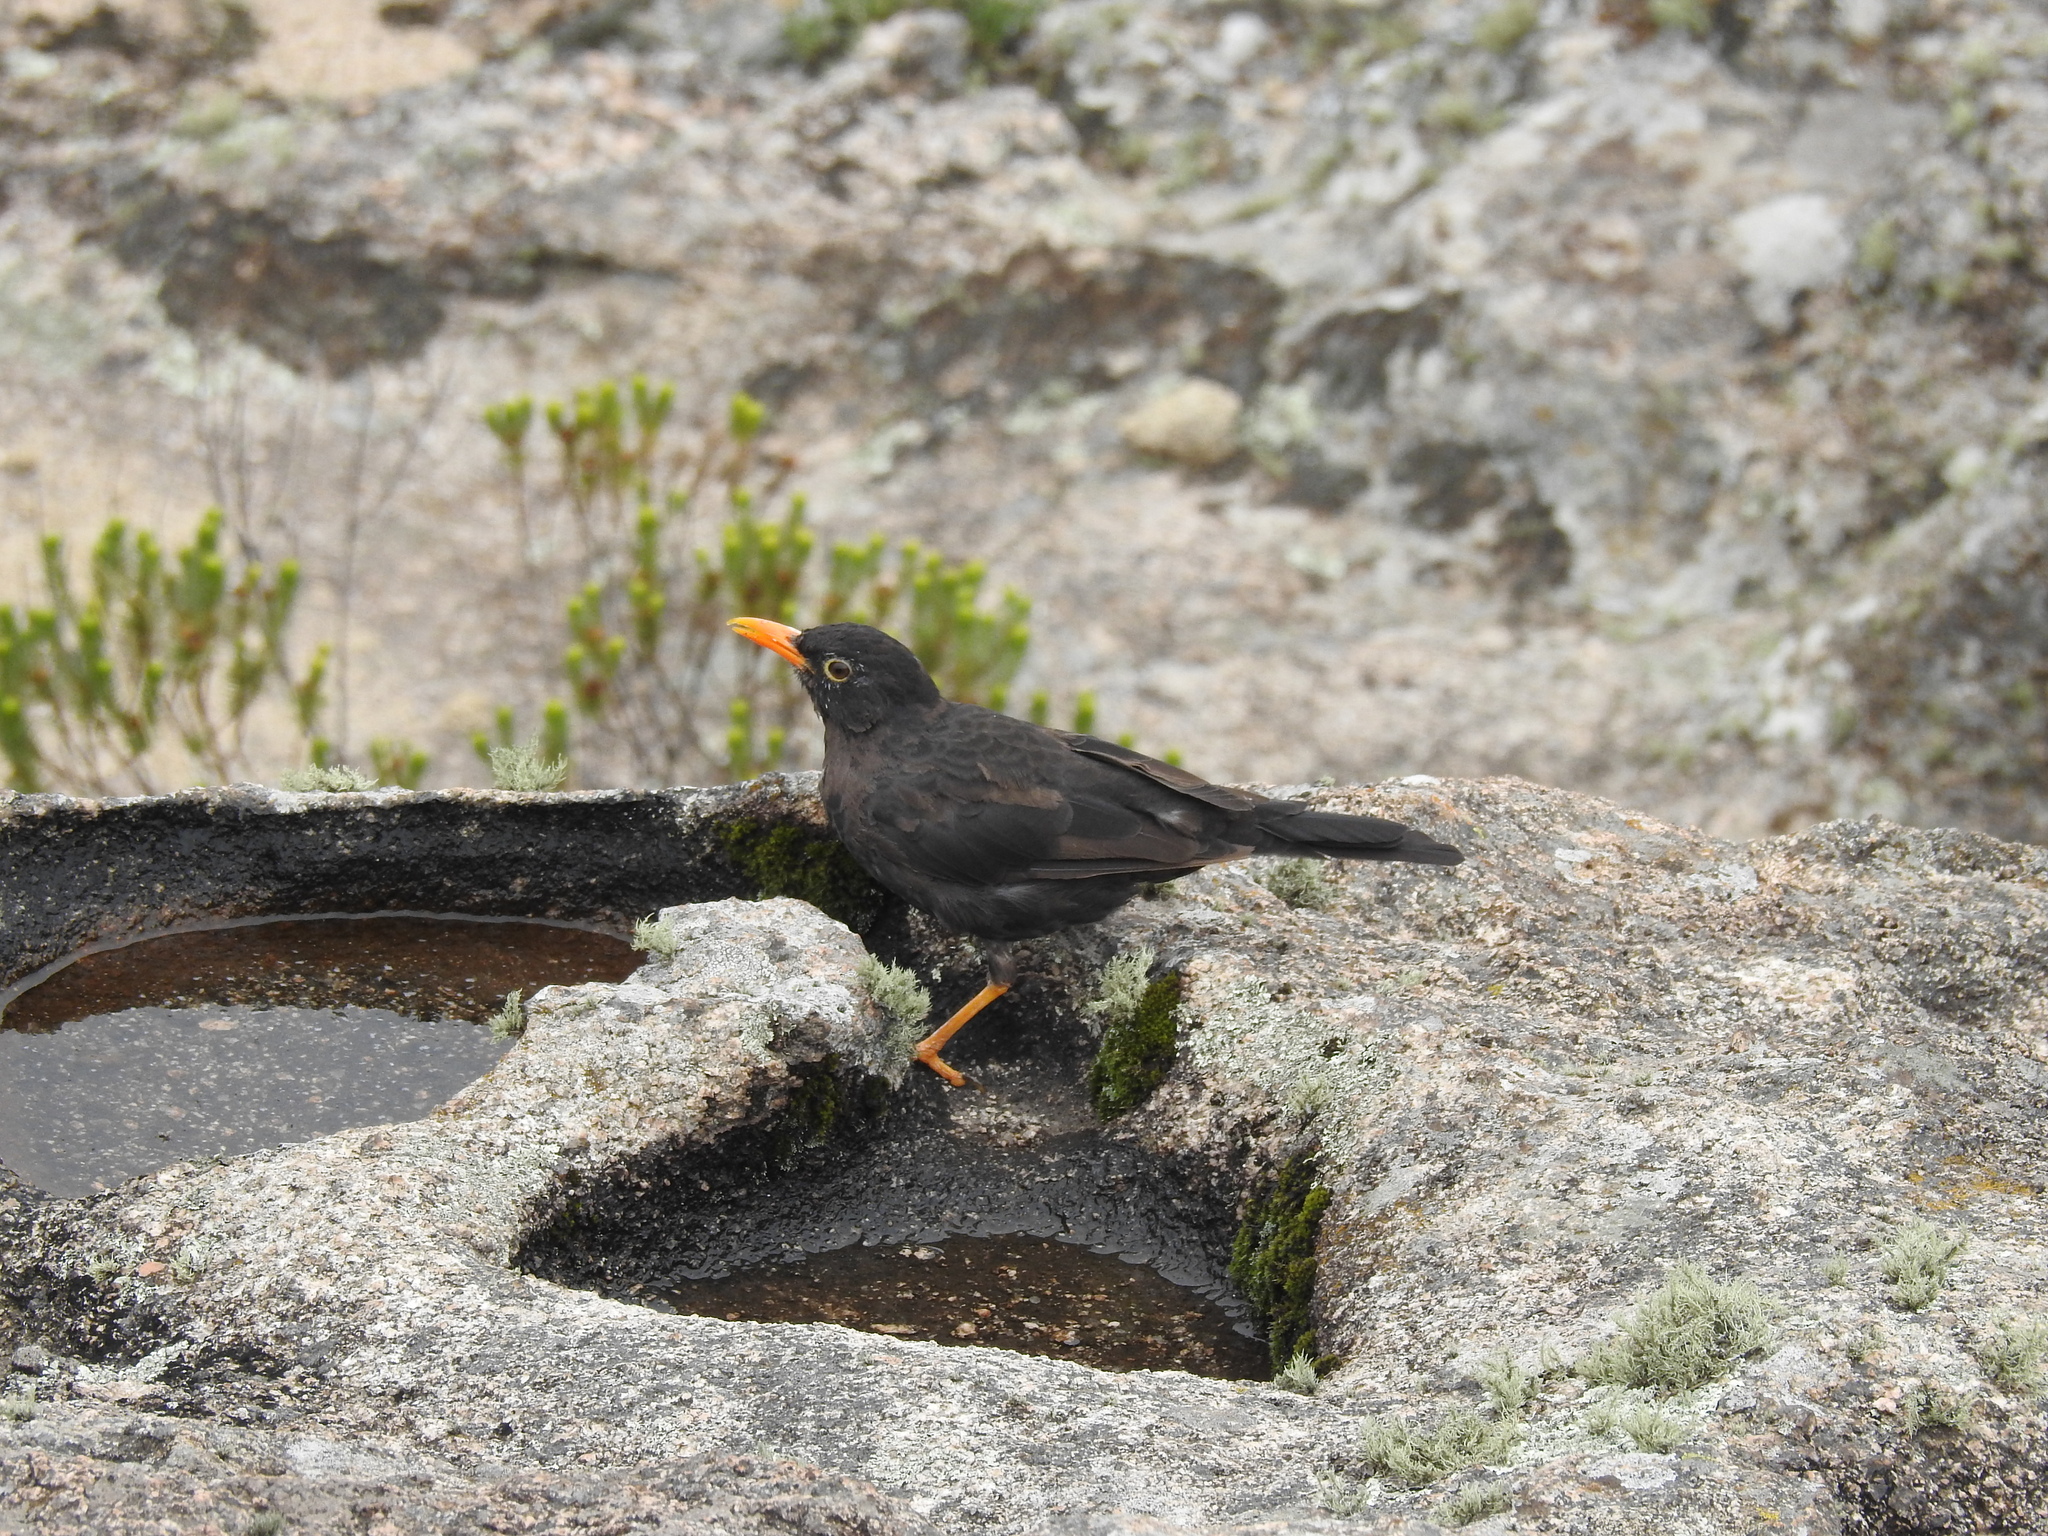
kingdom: Animalia
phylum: Chordata
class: Aves
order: Passeriformes
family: Turdidae
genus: Turdus
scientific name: Turdus chiguanco
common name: Chiguanco thrush
